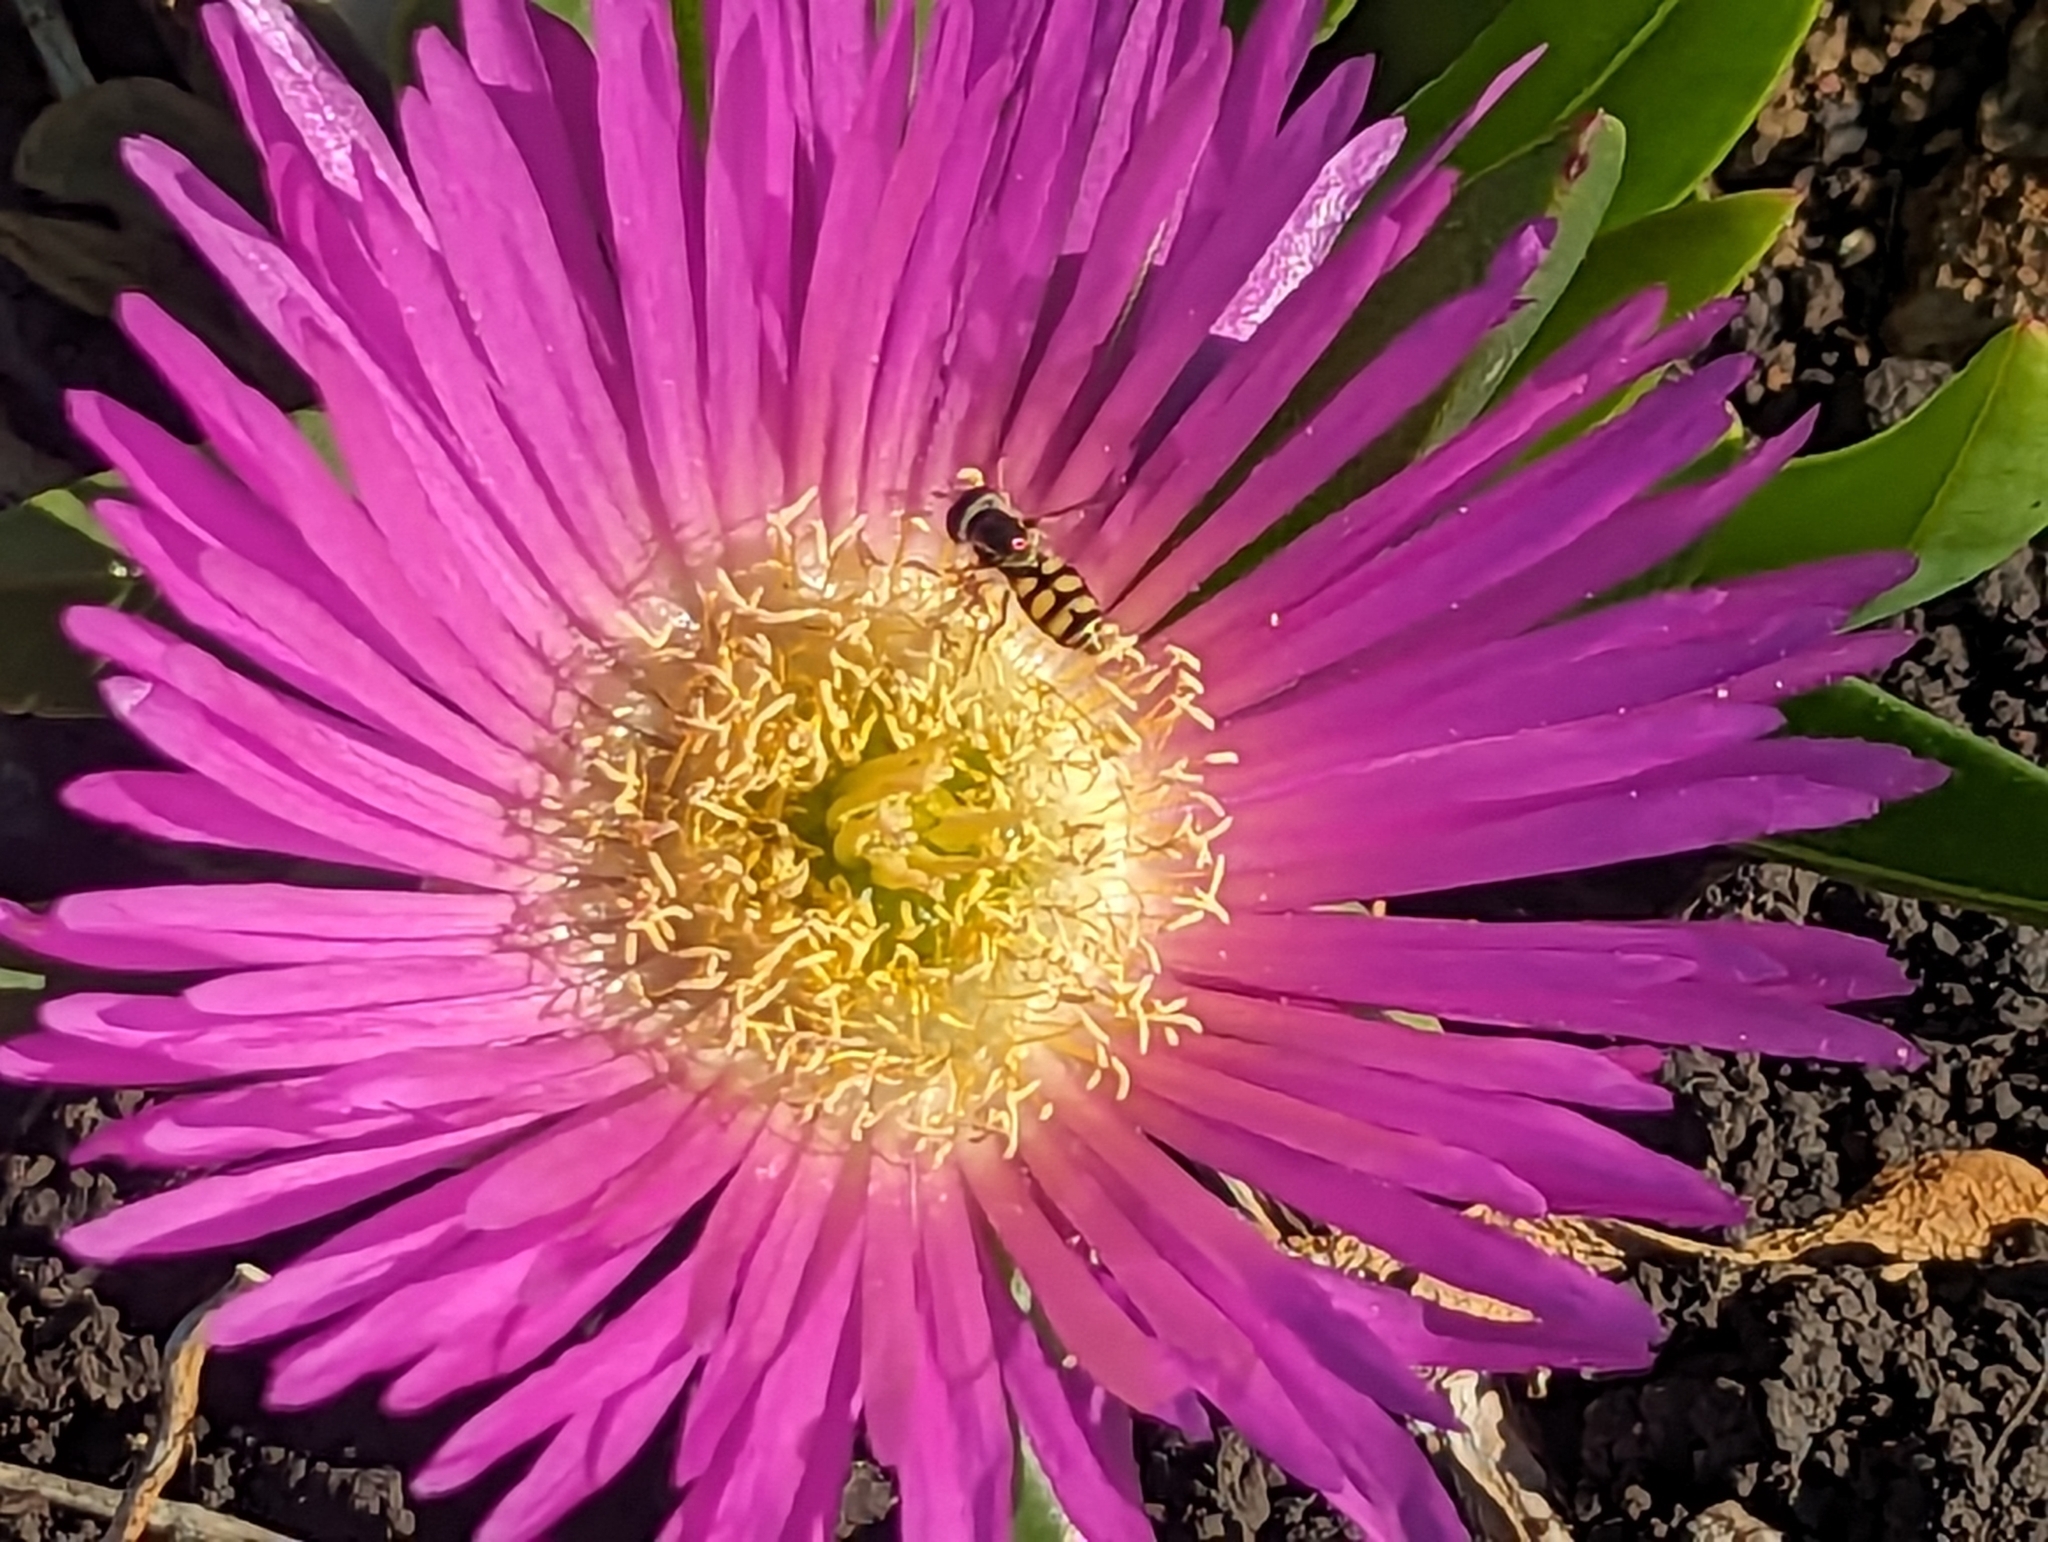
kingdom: Animalia
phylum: Arthropoda
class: Insecta
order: Diptera
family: Syrphidae
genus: Melangyna
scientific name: Melangyna viridiceps
